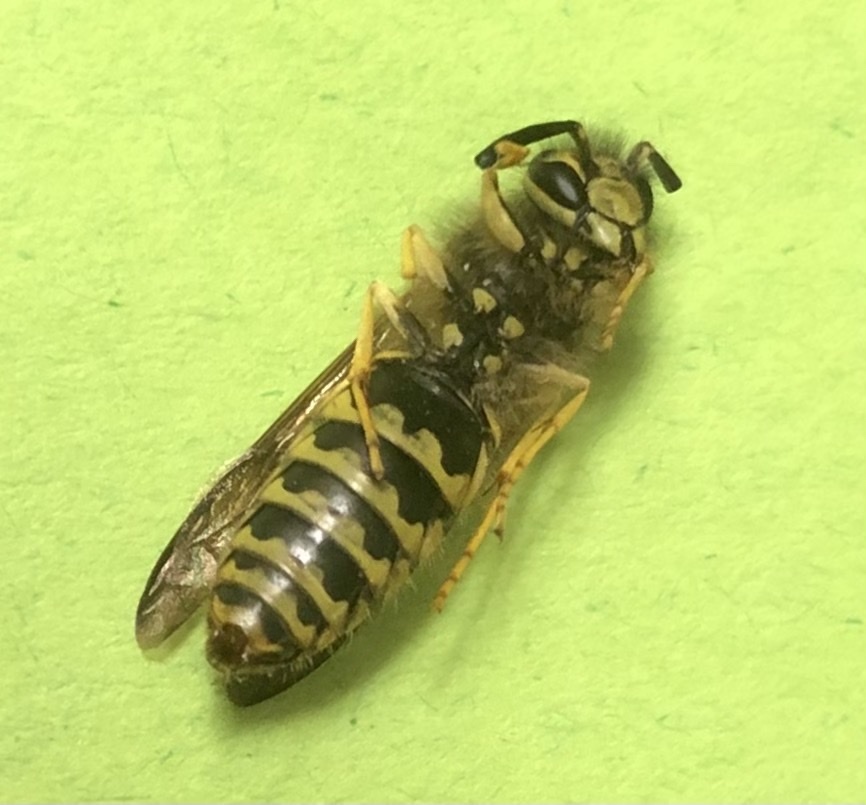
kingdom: Animalia
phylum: Arthropoda
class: Insecta
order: Hymenoptera
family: Vespidae
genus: Vespula
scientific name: Vespula maculifrons
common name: Eastern yellowjacket
